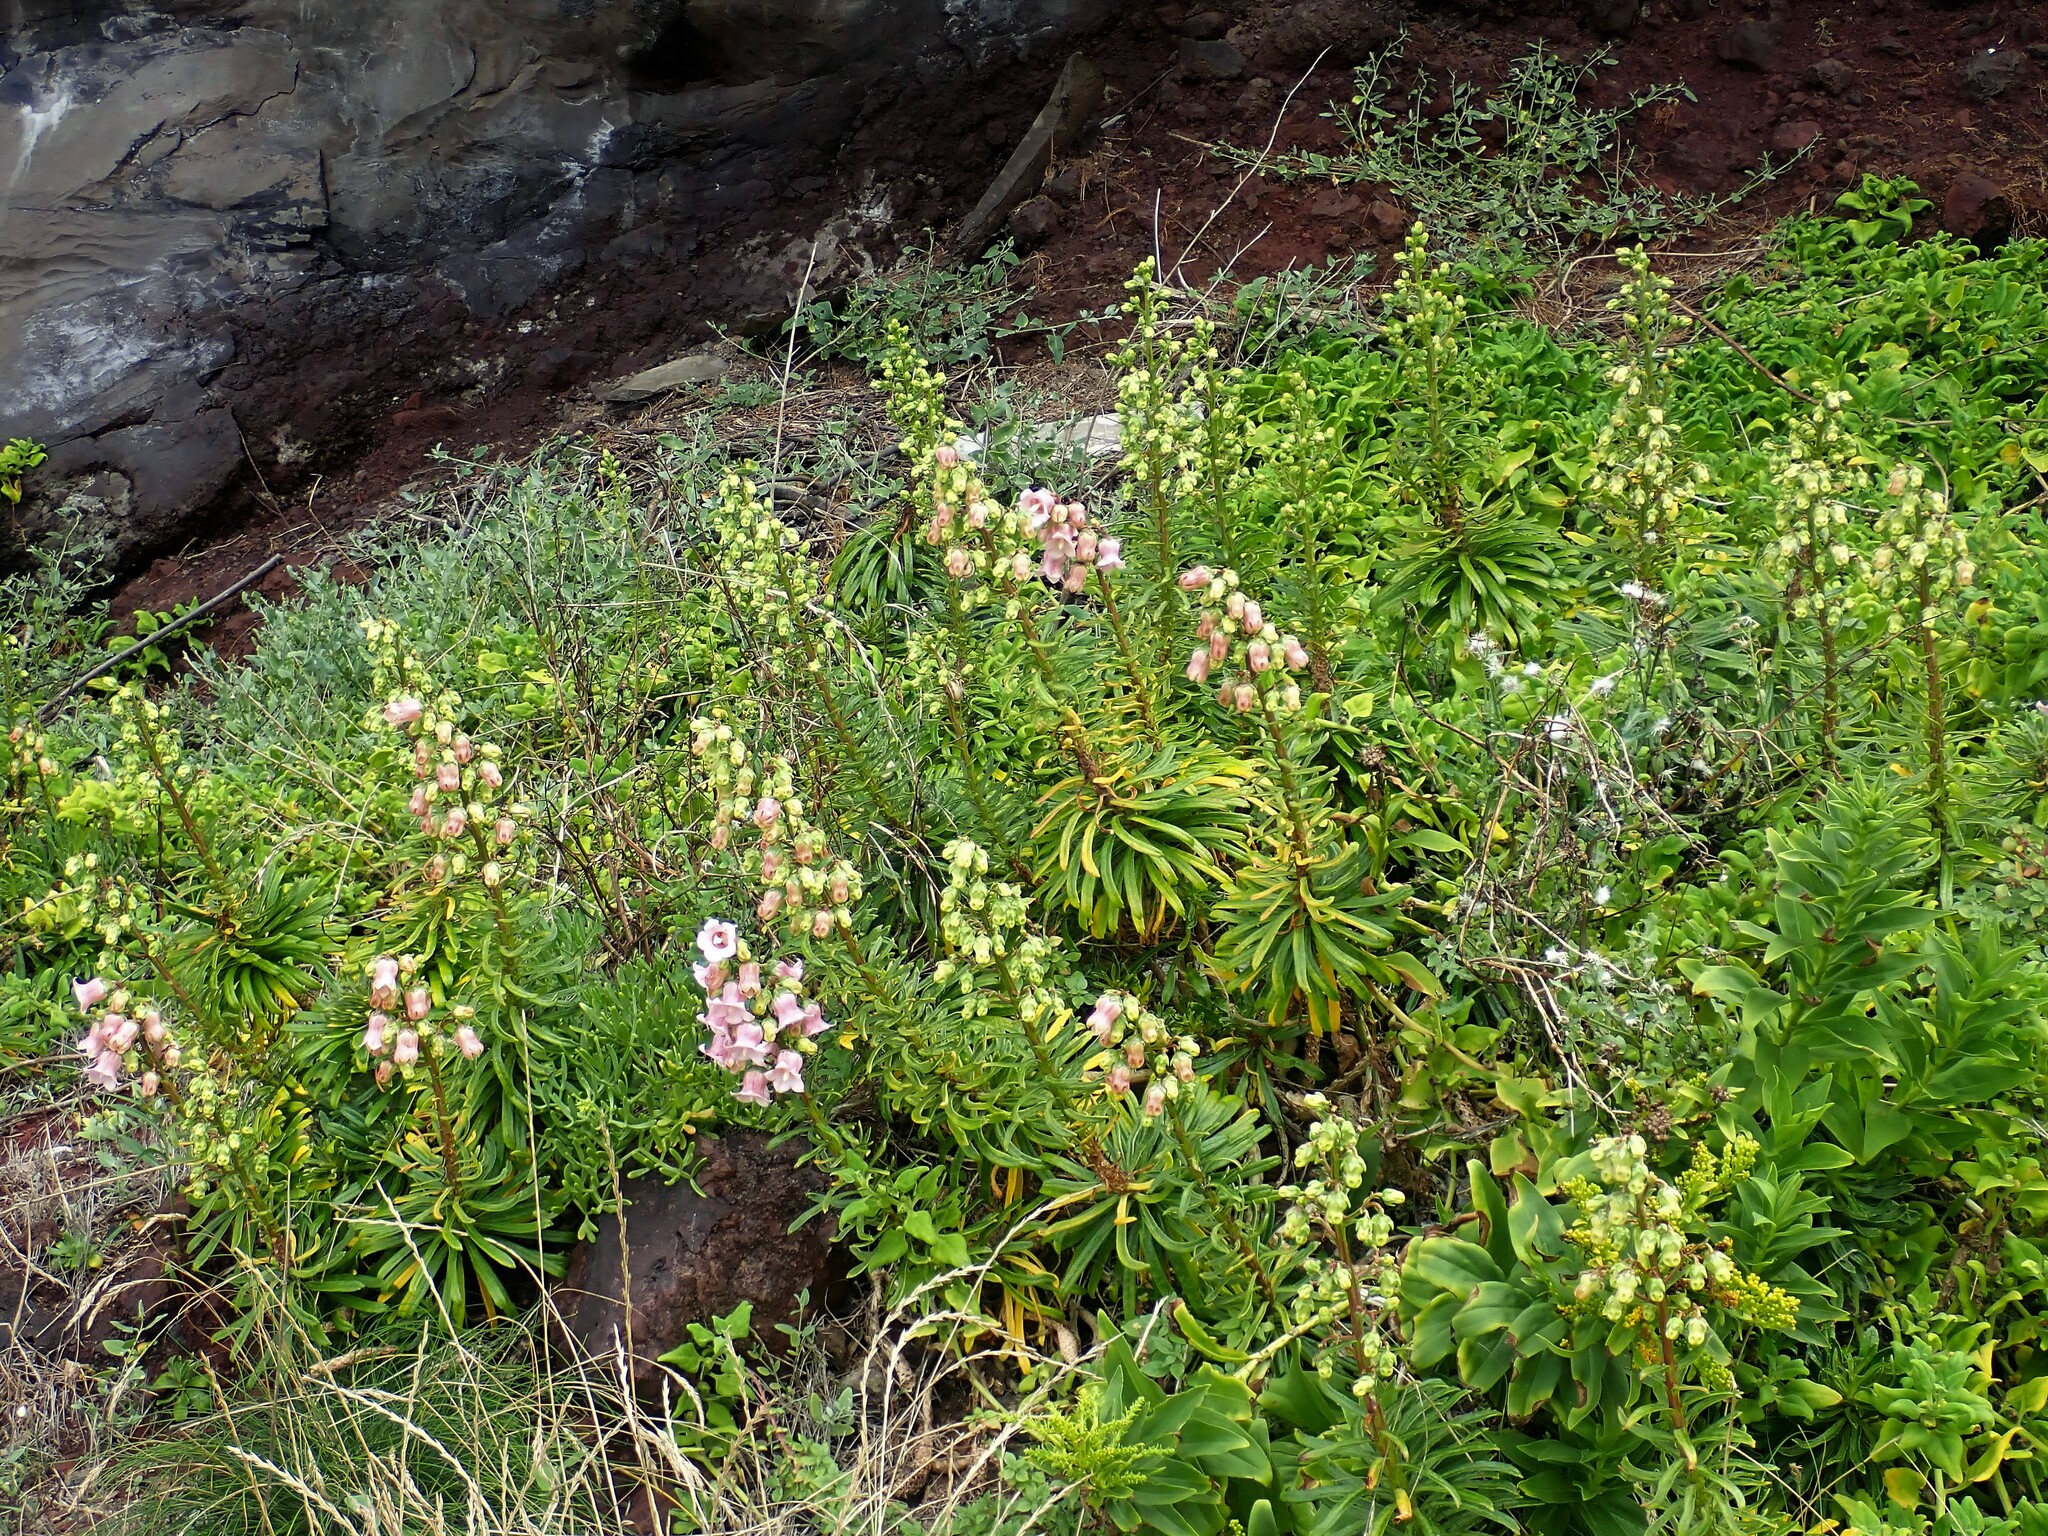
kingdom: Plantae
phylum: Tracheophyta
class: Magnoliopsida
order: Asterales
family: Campanulaceae
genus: Campanula
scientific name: Campanula vidalii
